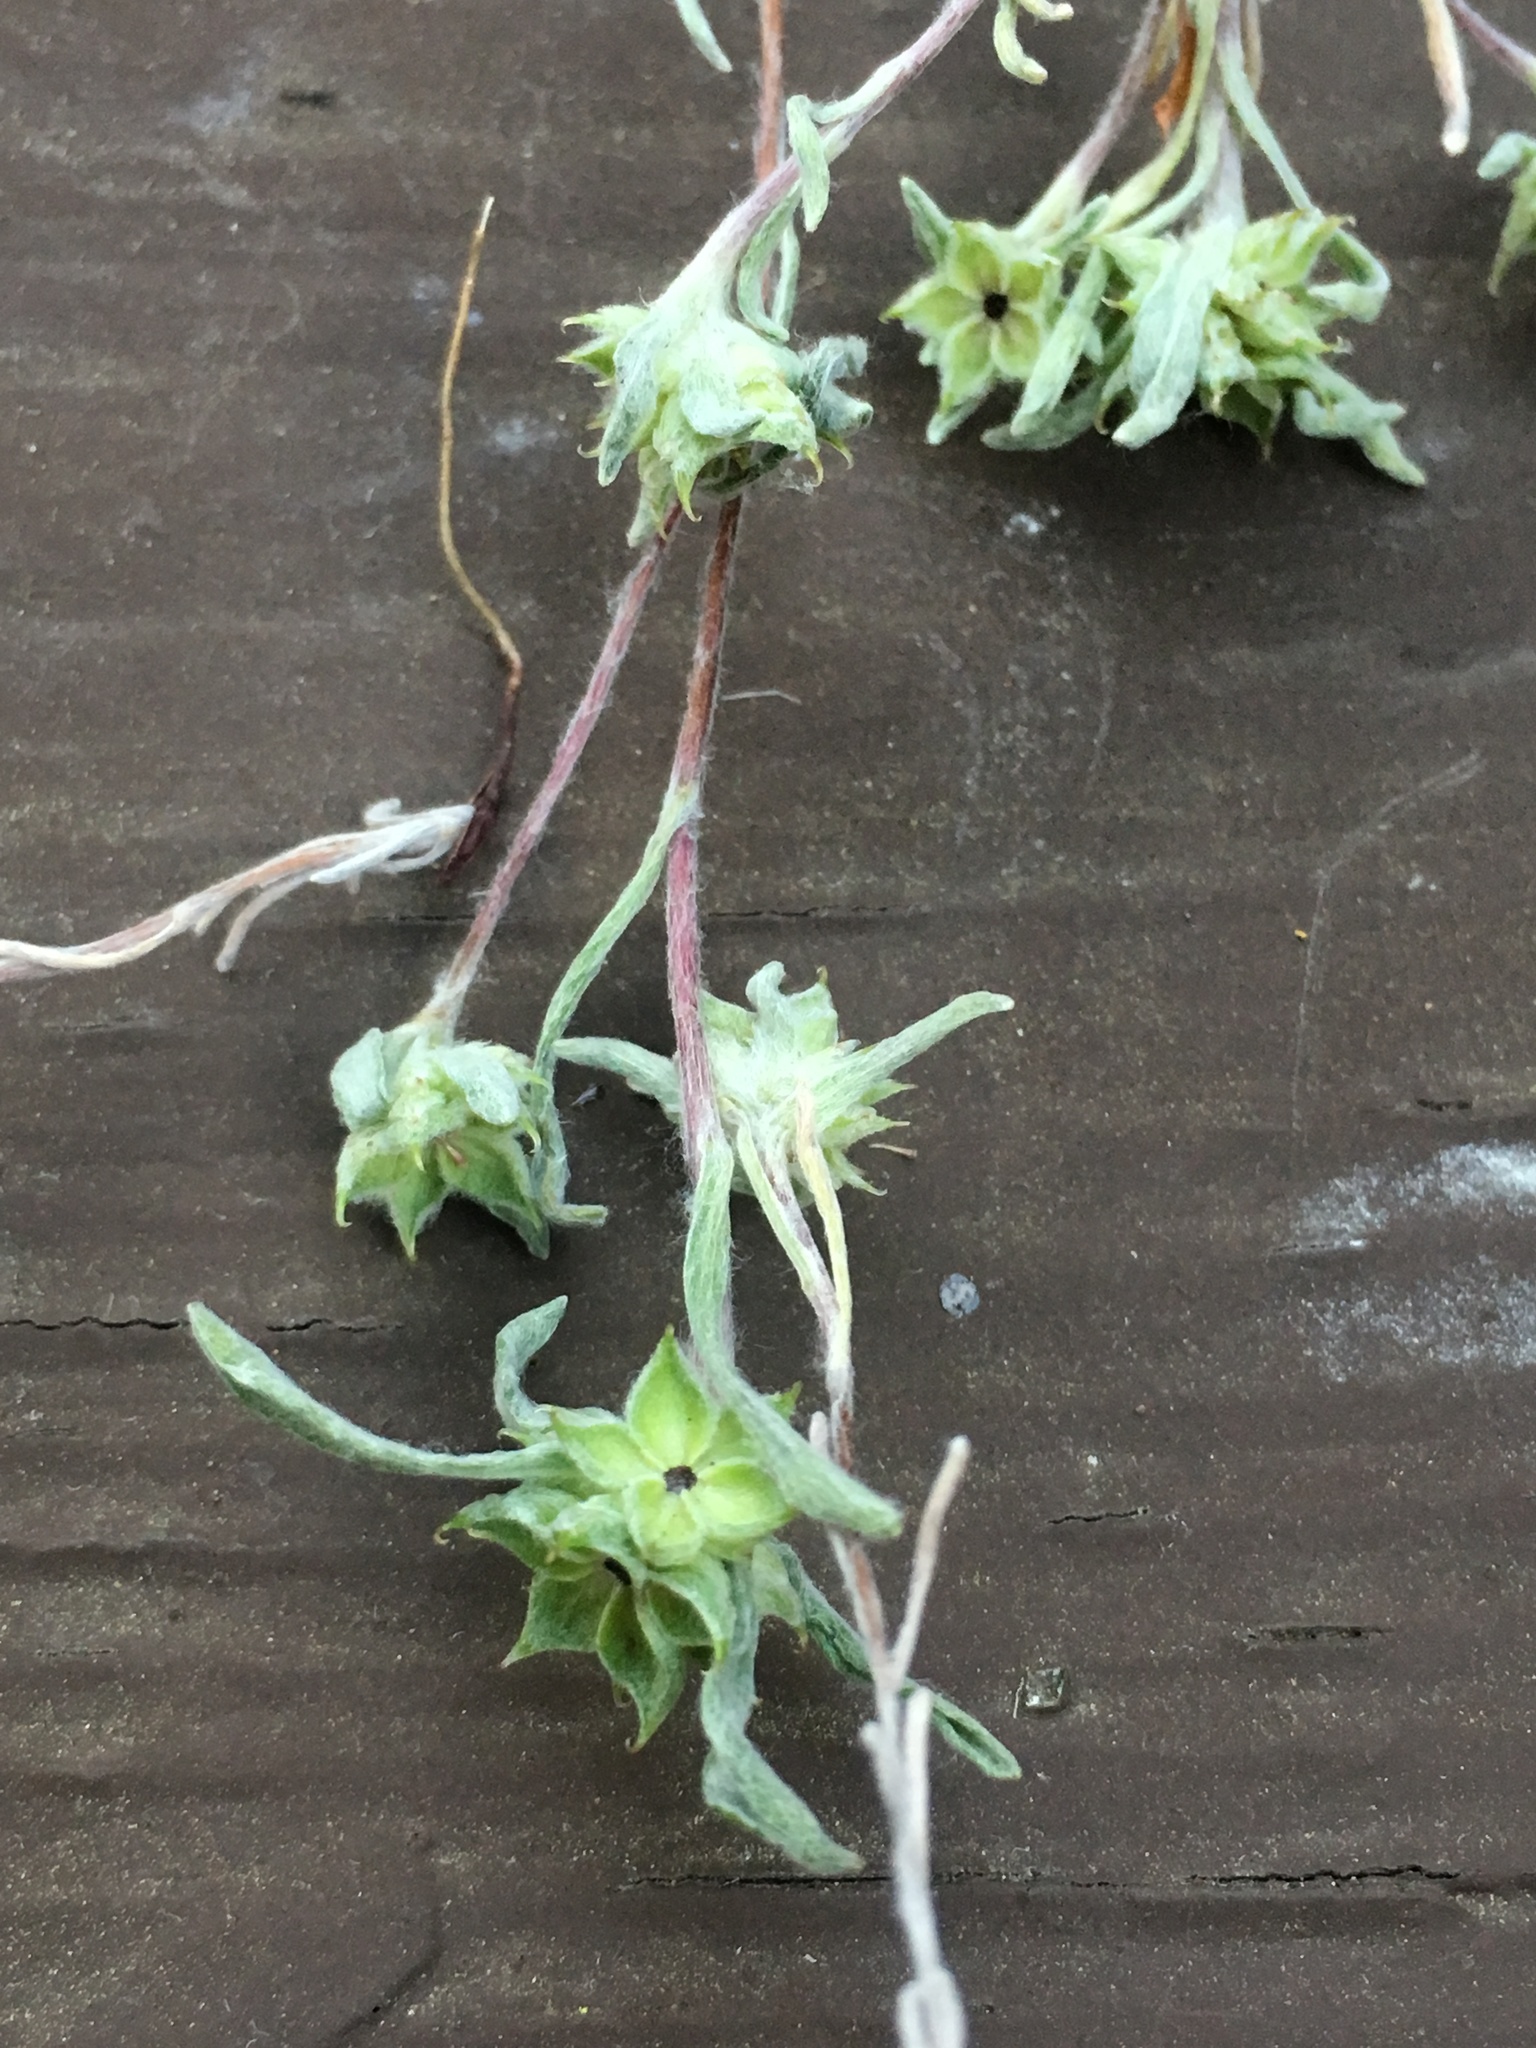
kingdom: Plantae
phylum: Tracheophyta
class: Magnoliopsida
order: Asterales
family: Asteraceae
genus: Ancistrocarphus
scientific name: Ancistrocarphus filagineus
